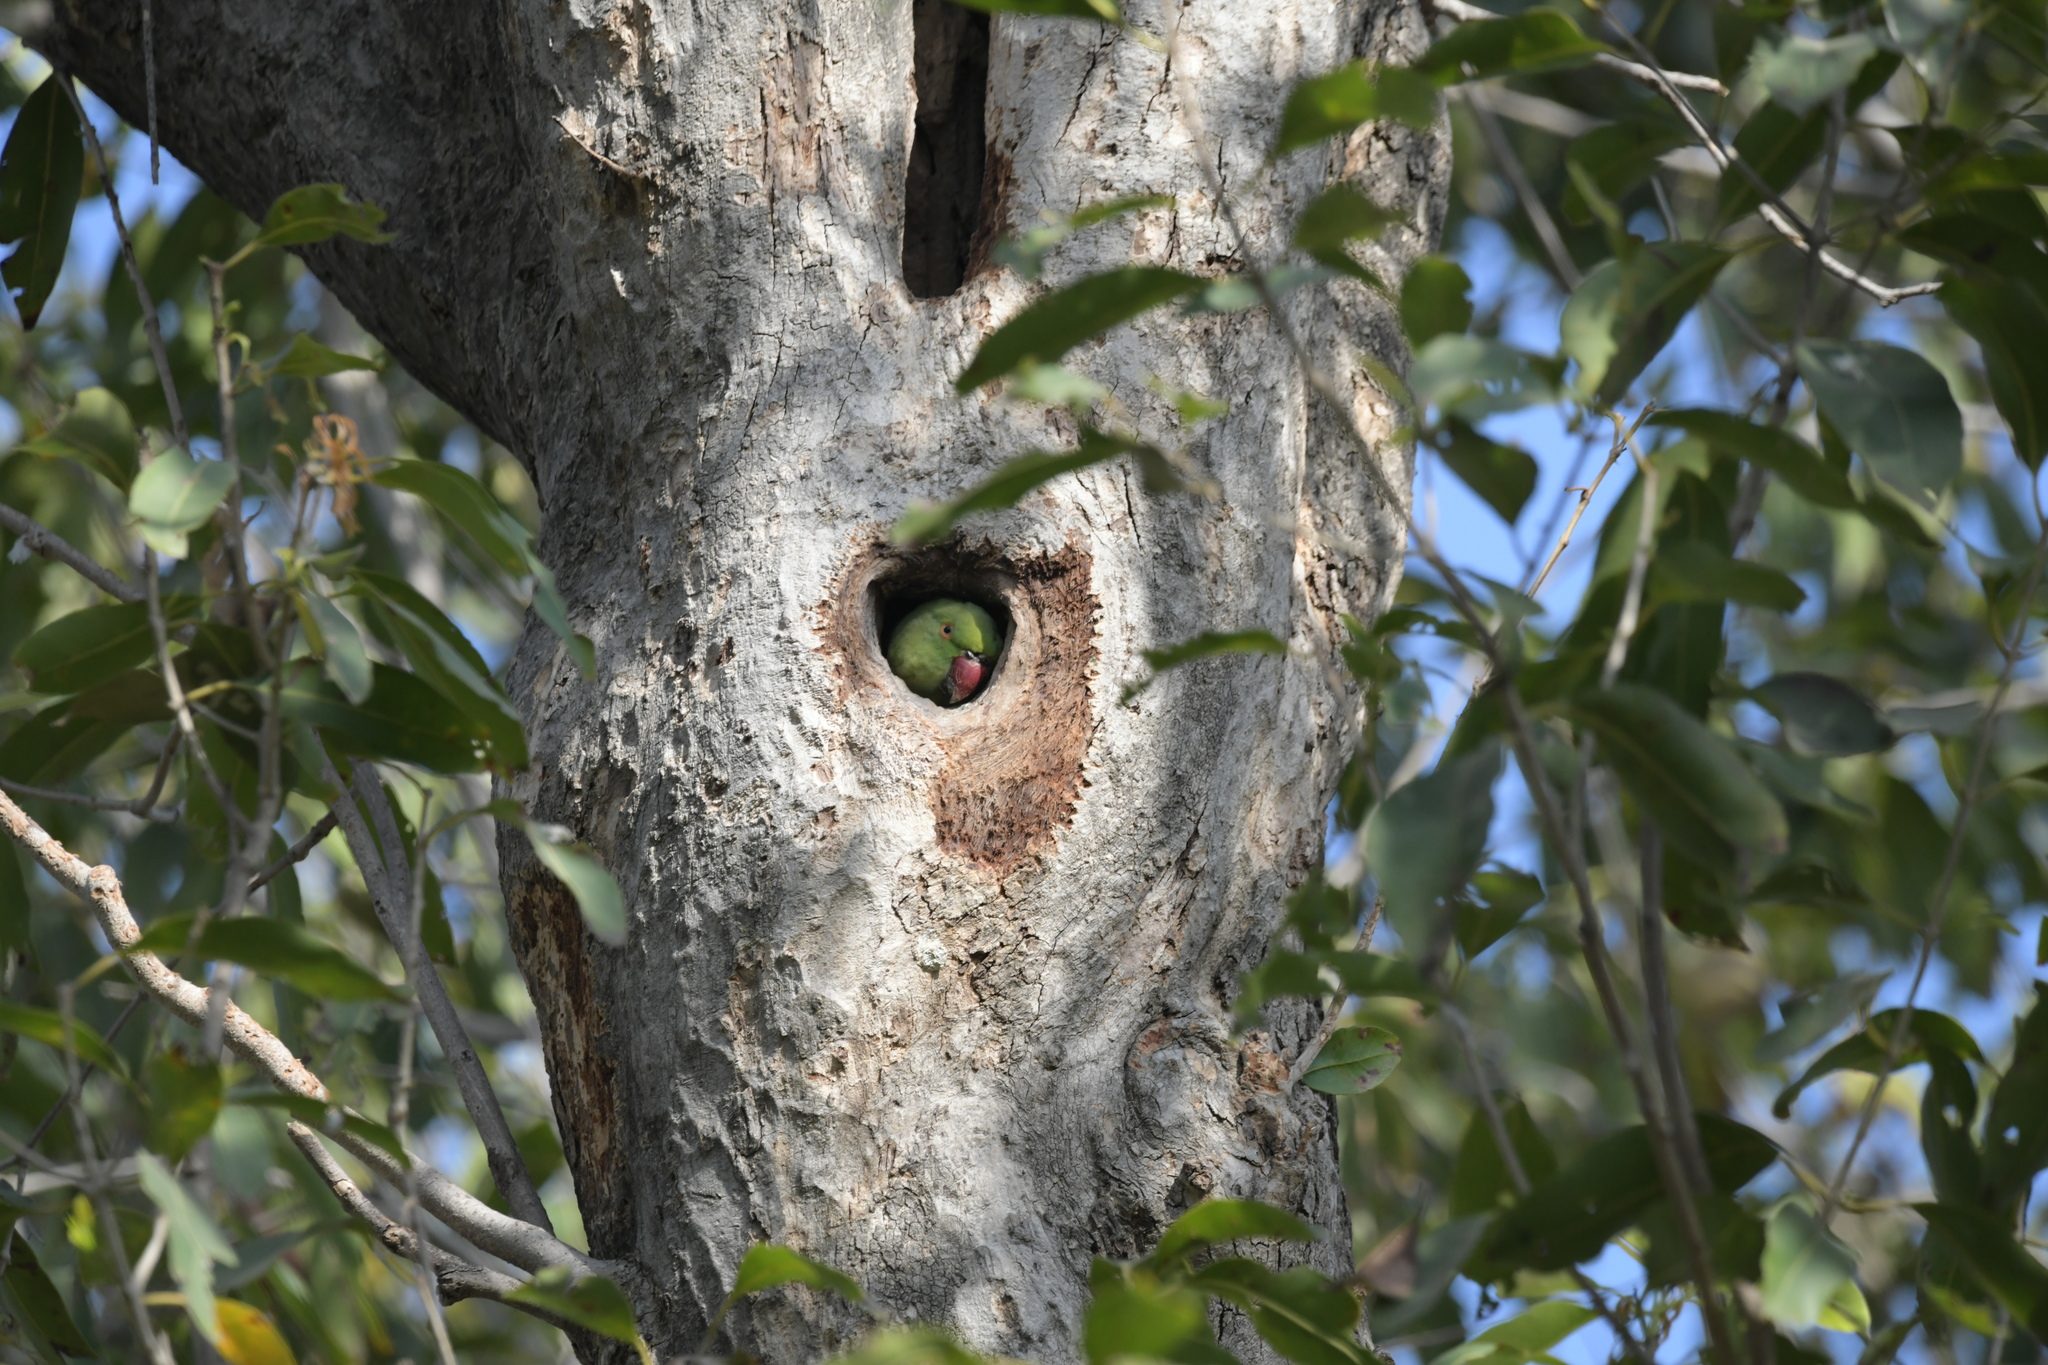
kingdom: Animalia
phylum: Chordata
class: Aves
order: Psittaciformes
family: Psittacidae
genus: Psittacula
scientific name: Psittacula krameri
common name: Rose-ringed parakeet
